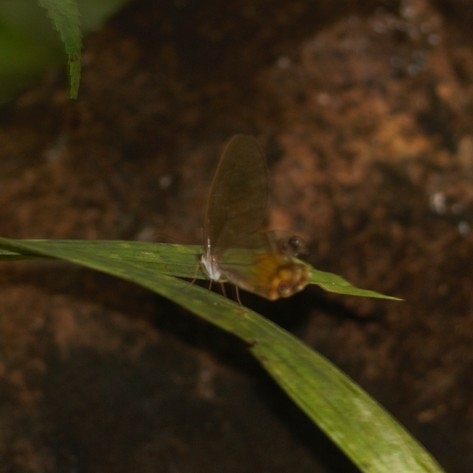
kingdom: Animalia
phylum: Arthropoda
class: Insecta
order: Lepidoptera
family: Nymphalidae
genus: Haetera
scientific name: Haetera piera
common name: Amber phantom
